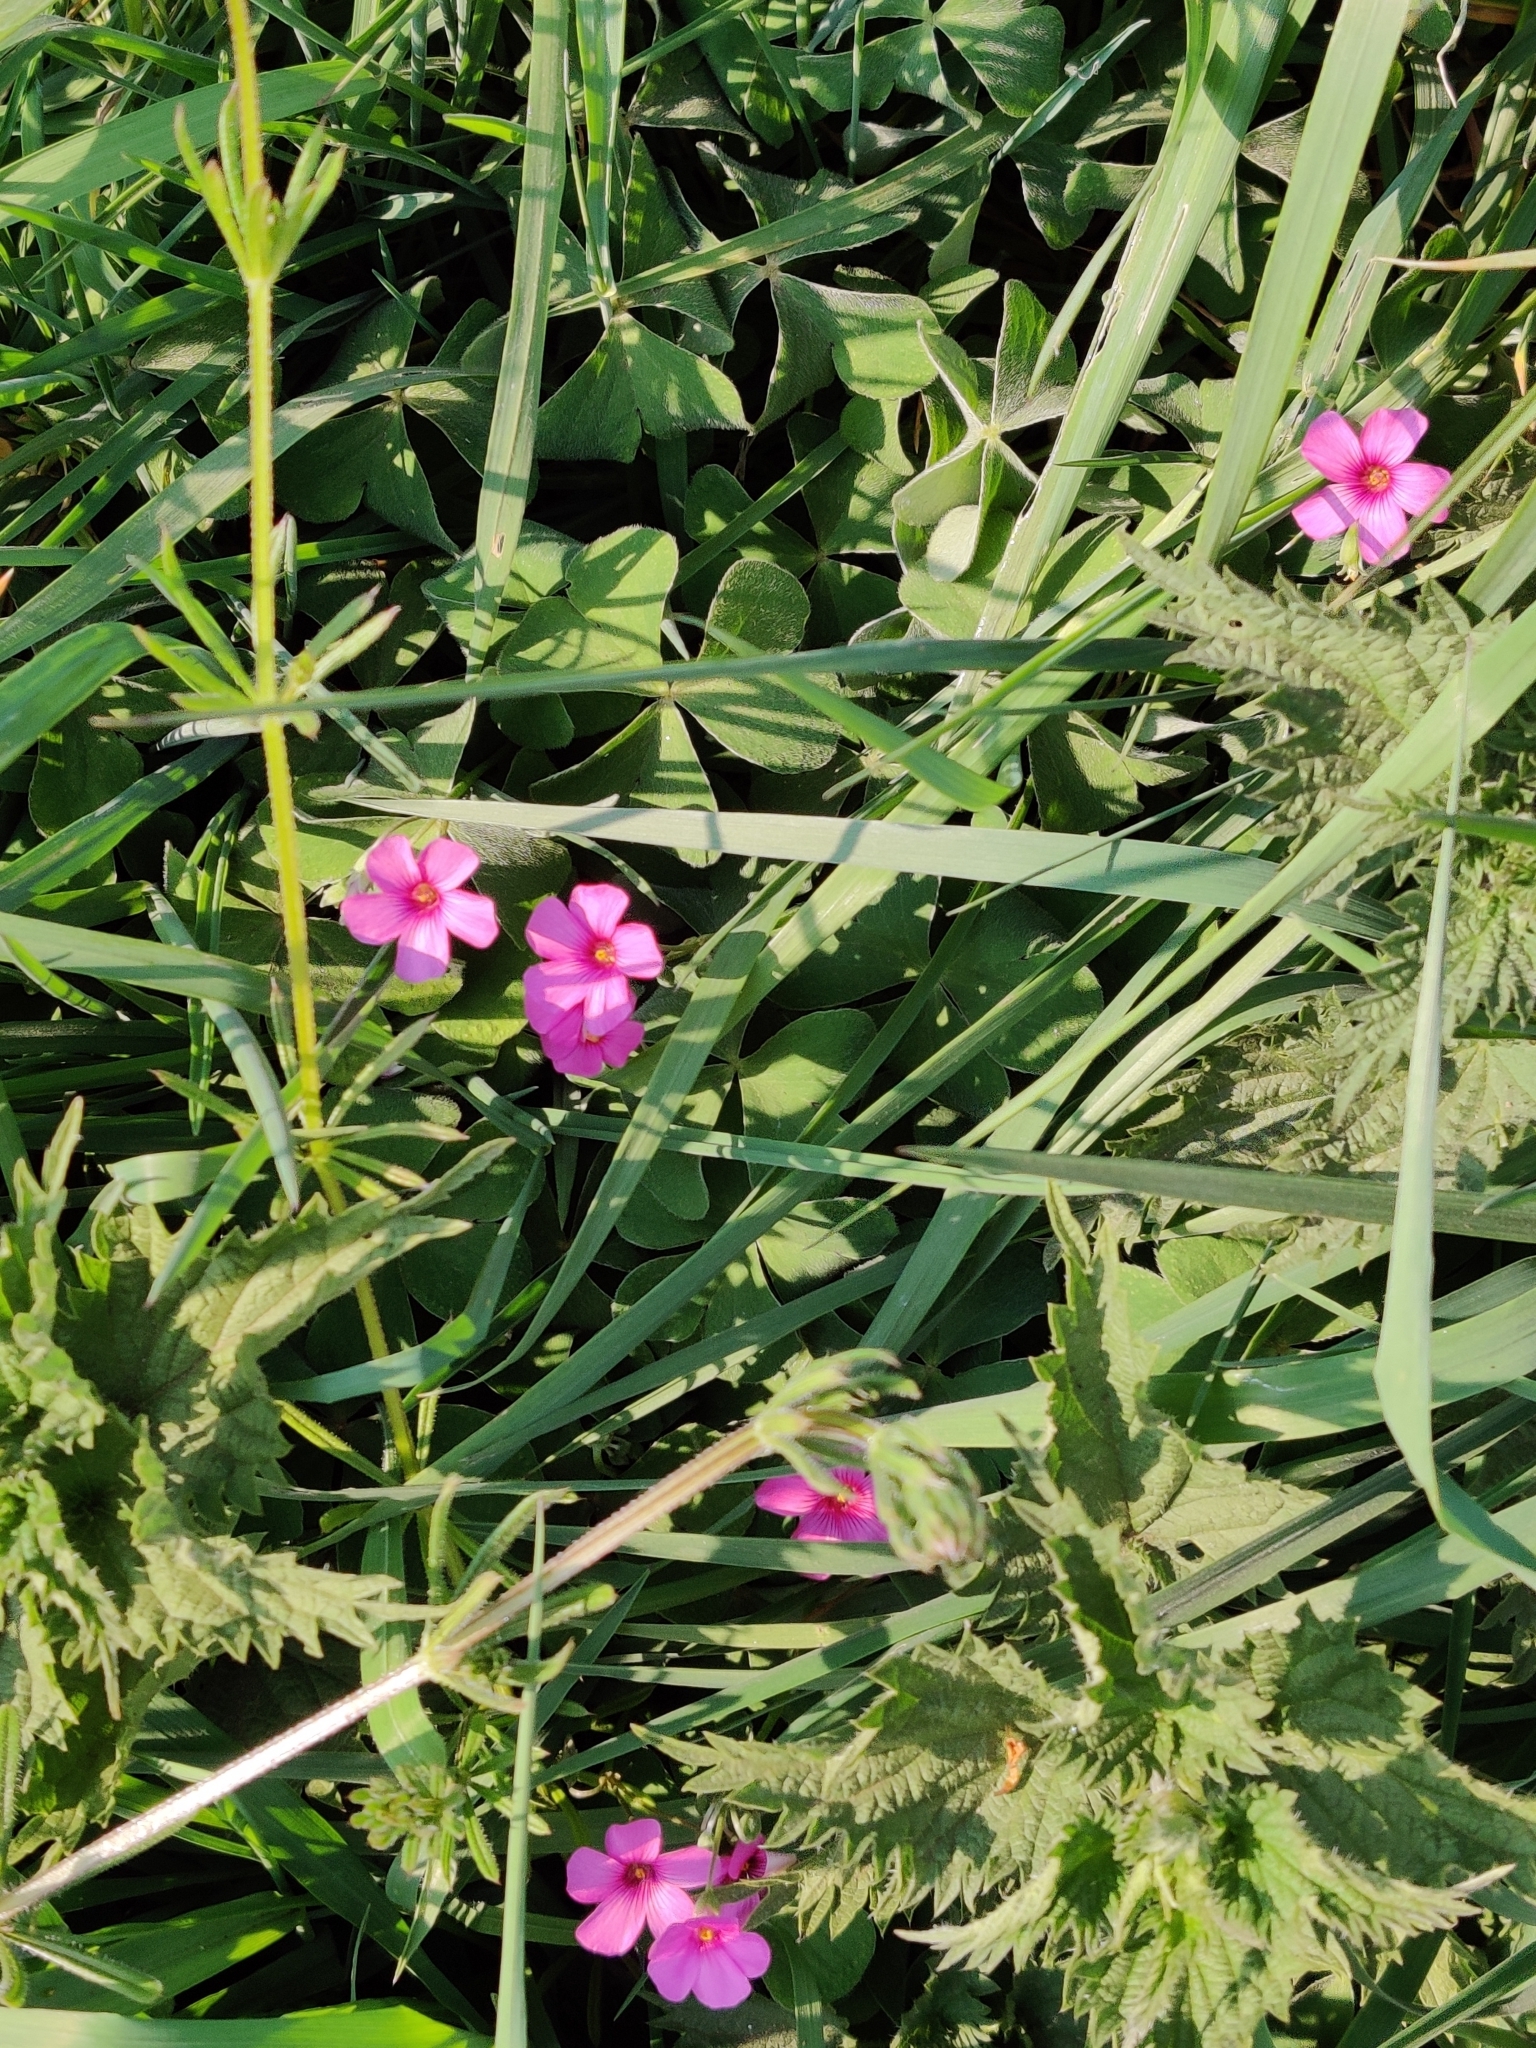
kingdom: Plantae
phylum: Tracheophyta
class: Magnoliopsida
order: Oxalidales
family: Oxalidaceae
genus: Oxalis
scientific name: Oxalis articulata
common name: Pink-sorrel
